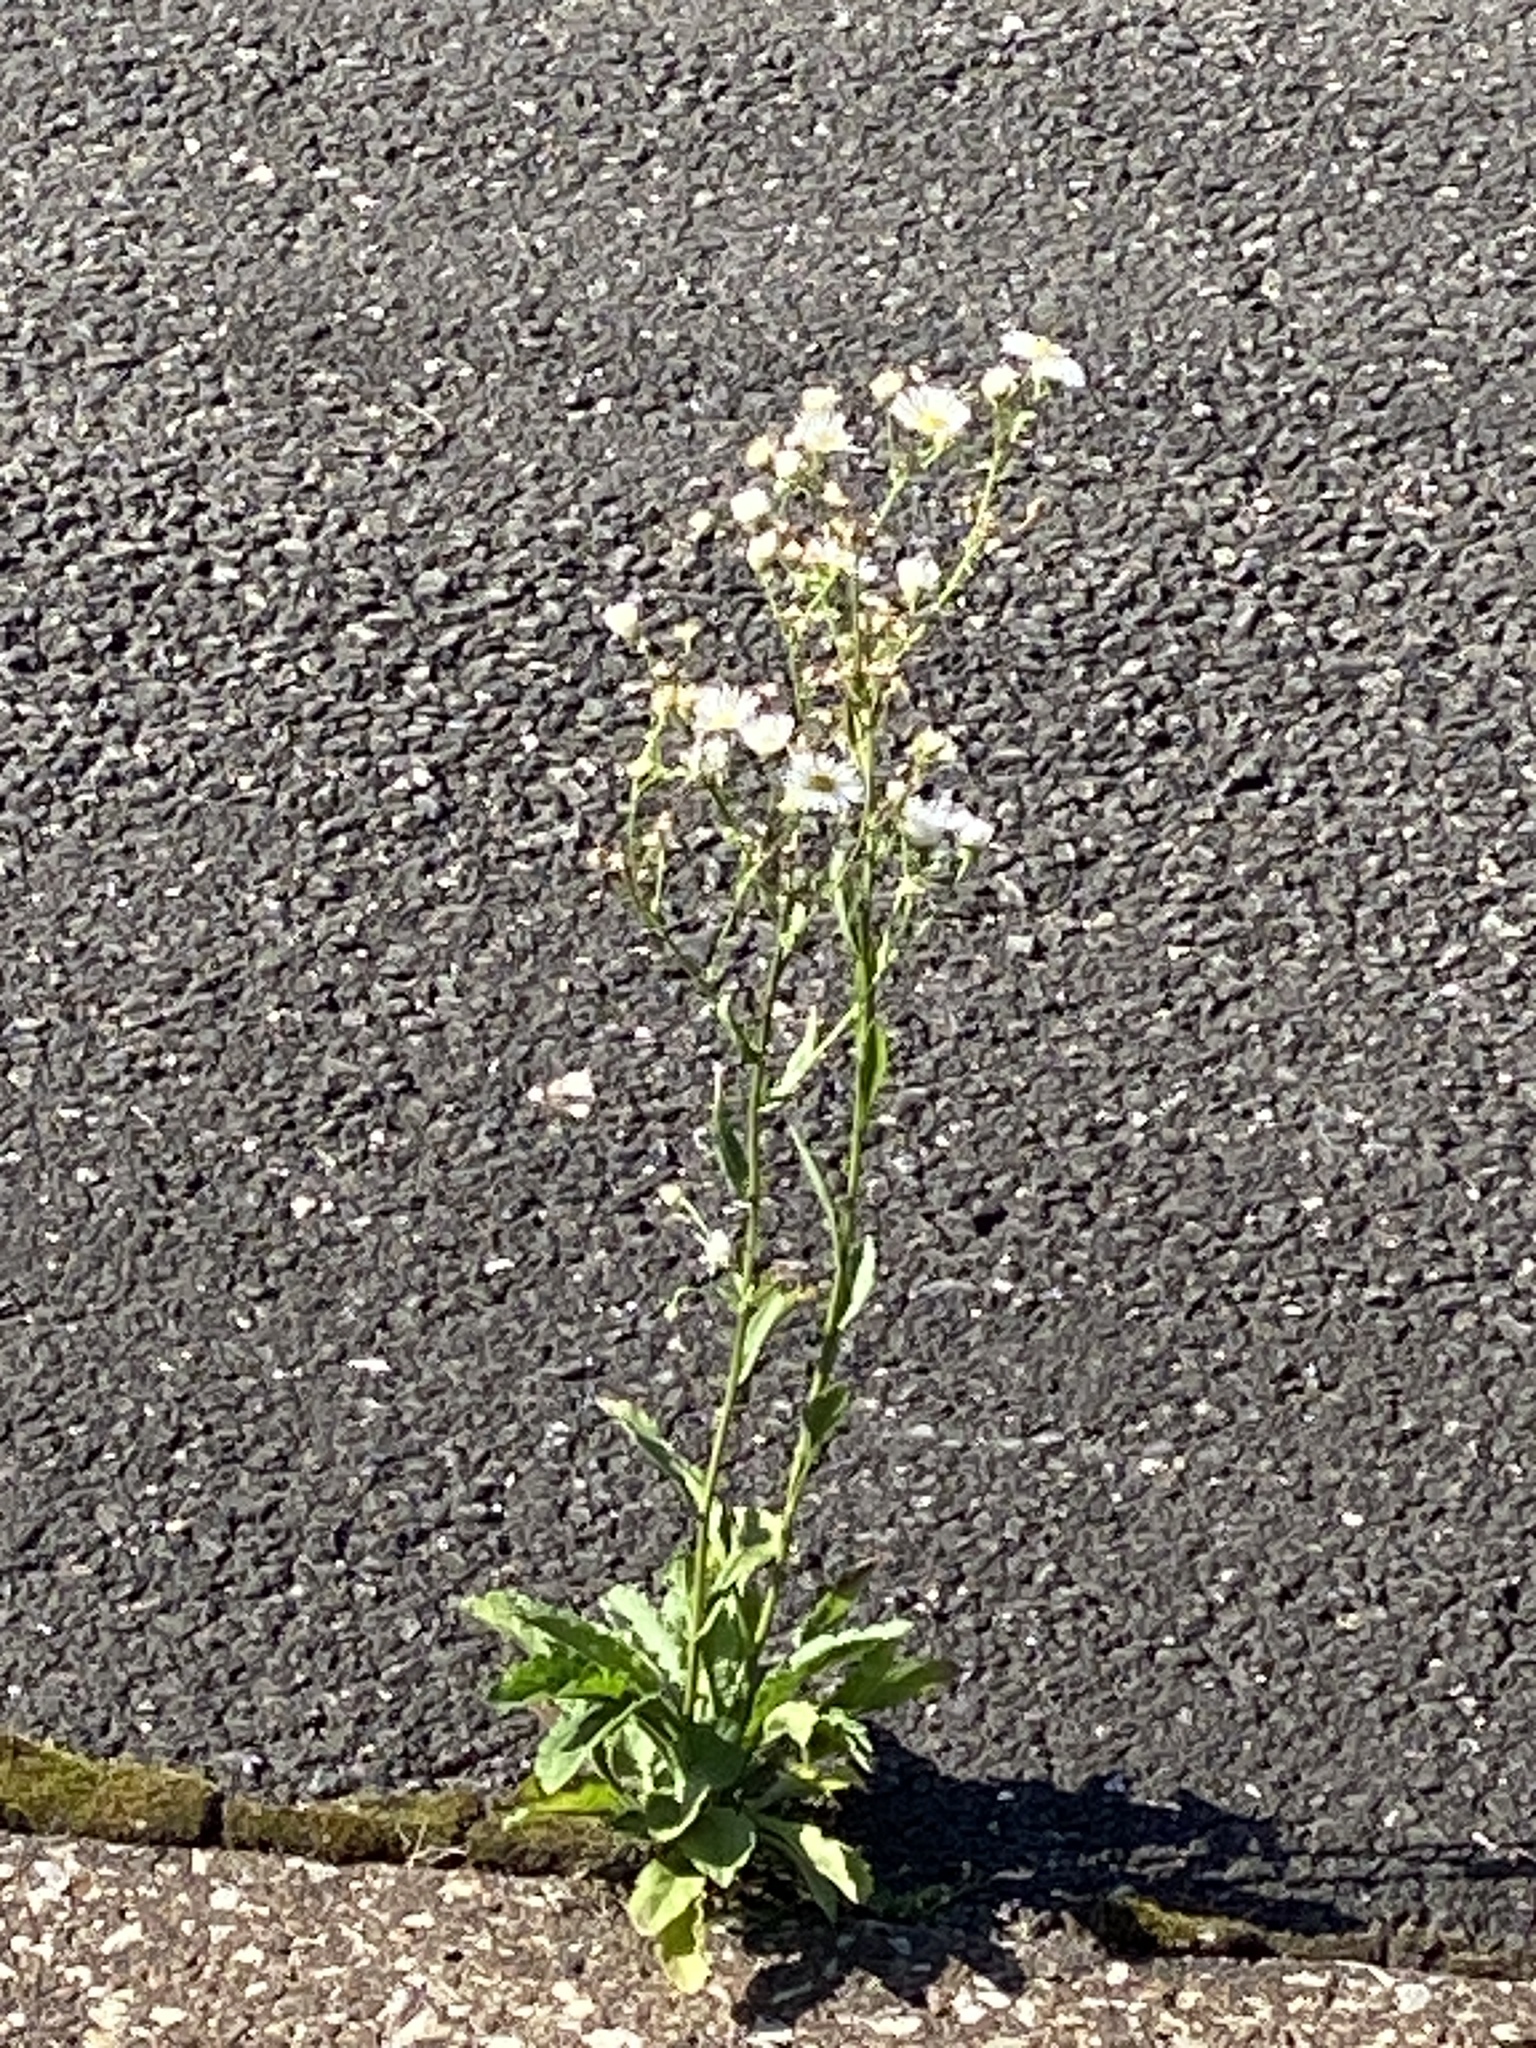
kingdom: Plantae
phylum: Tracheophyta
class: Magnoliopsida
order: Asterales
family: Asteraceae
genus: Erigeron
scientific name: Erigeron annuus
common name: Tall fleabane
